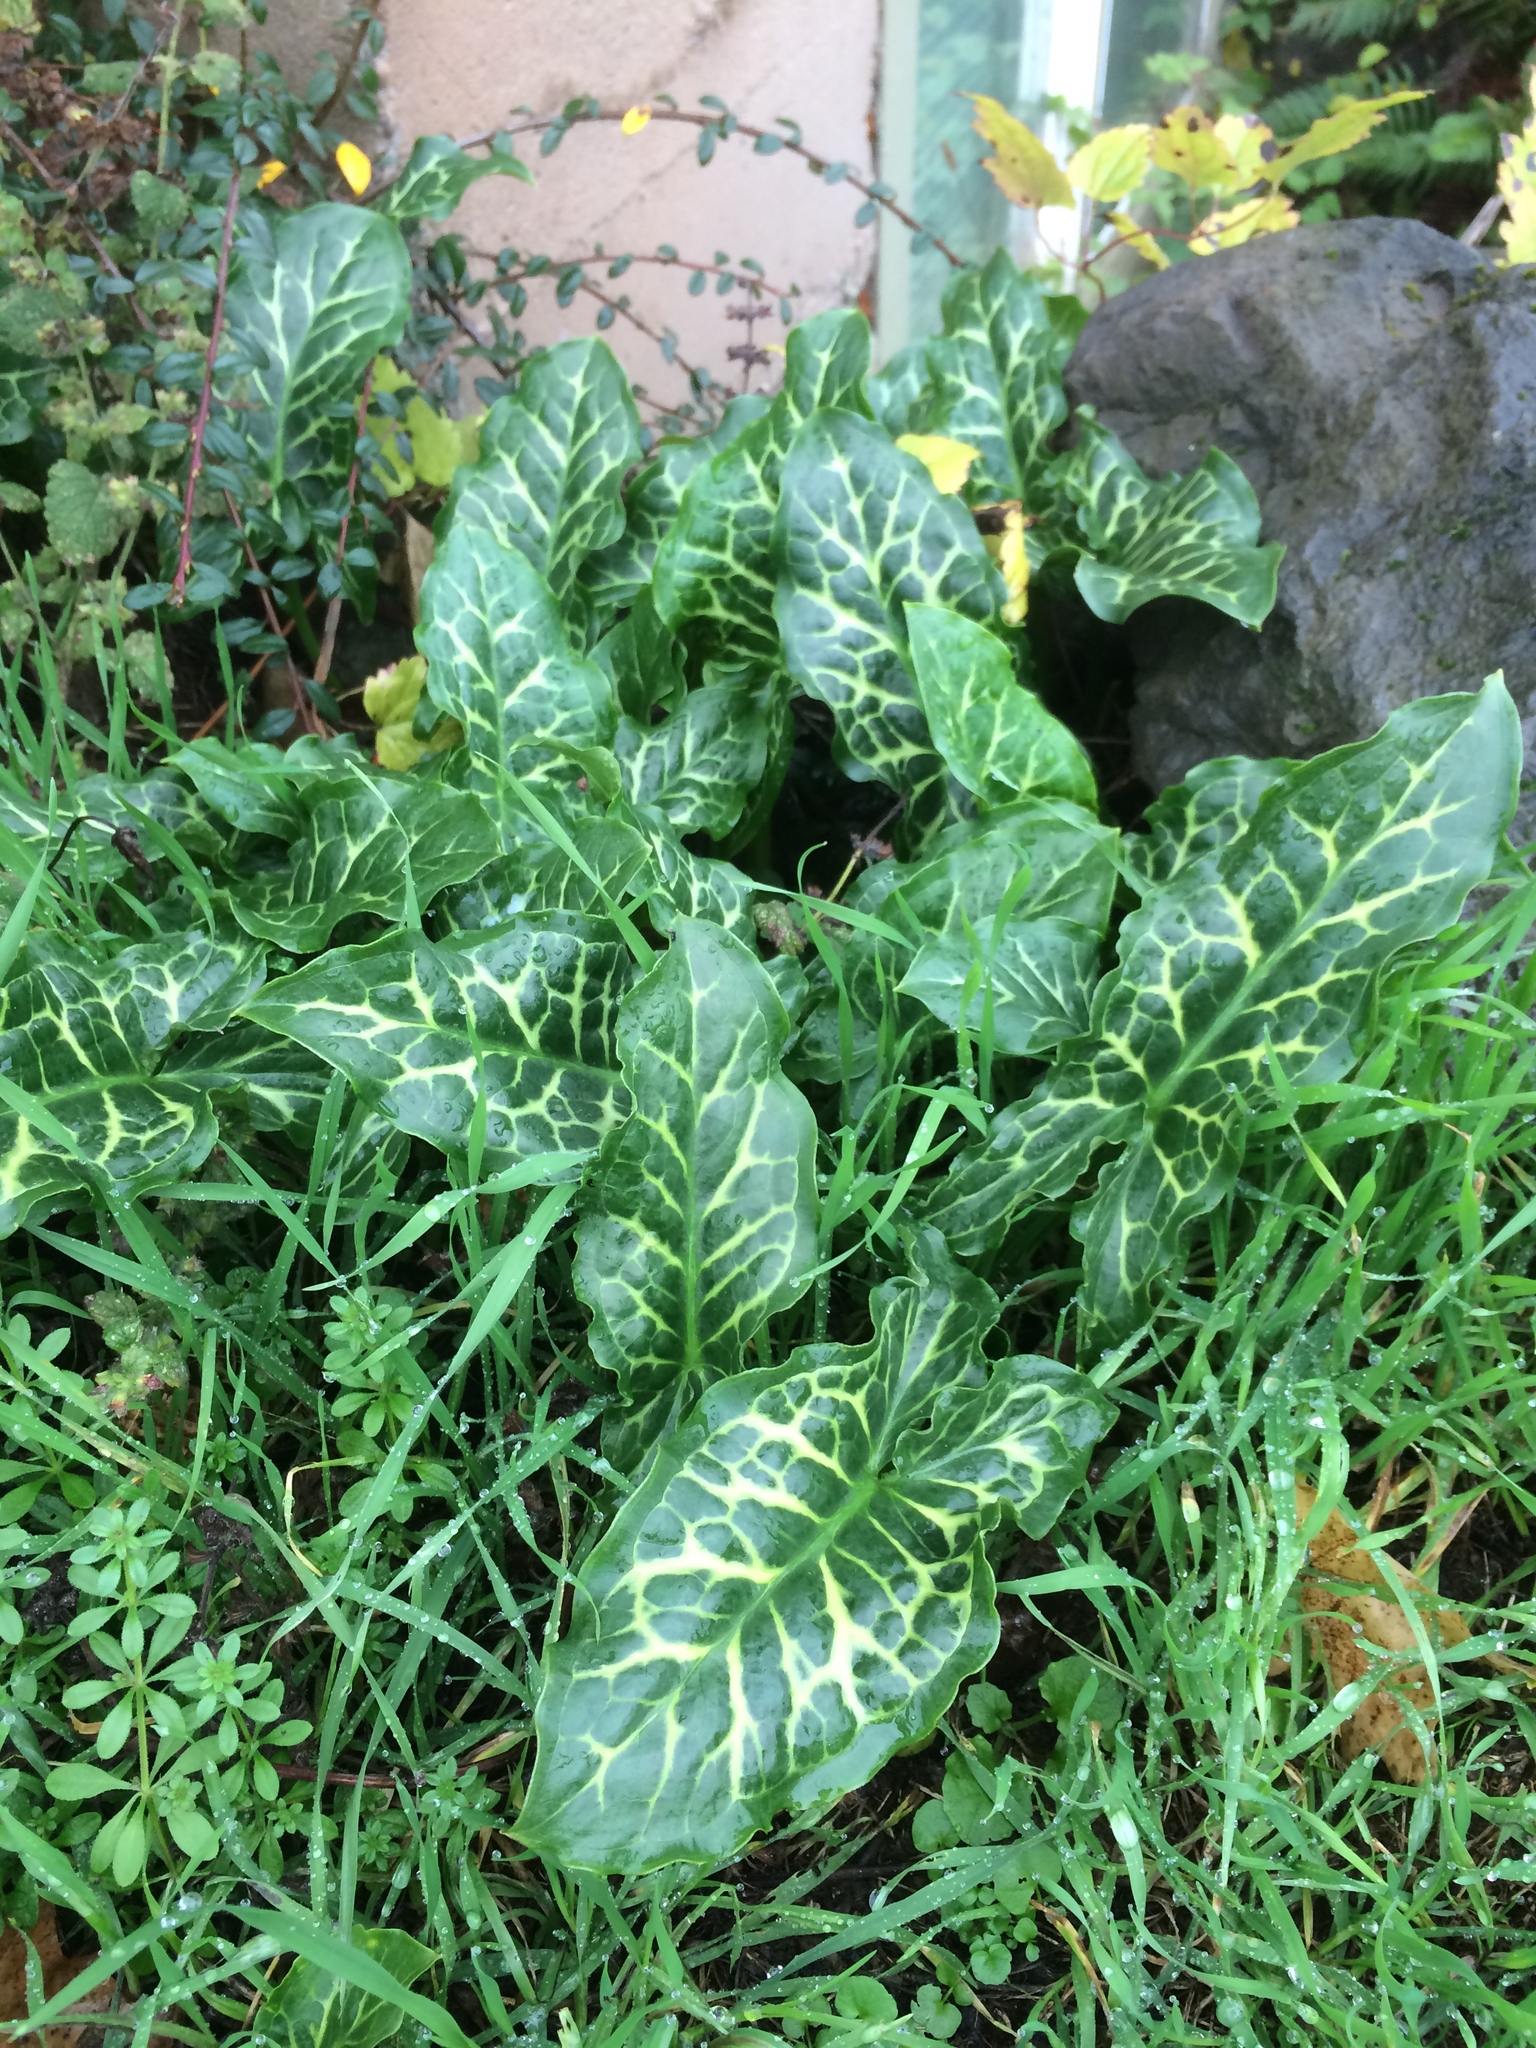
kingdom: Plantae
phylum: Tracheophyta
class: Liliopsida
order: Alismatales
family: Araceae
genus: Arum
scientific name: Arum italicum
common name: Italian lords-and-ladies
